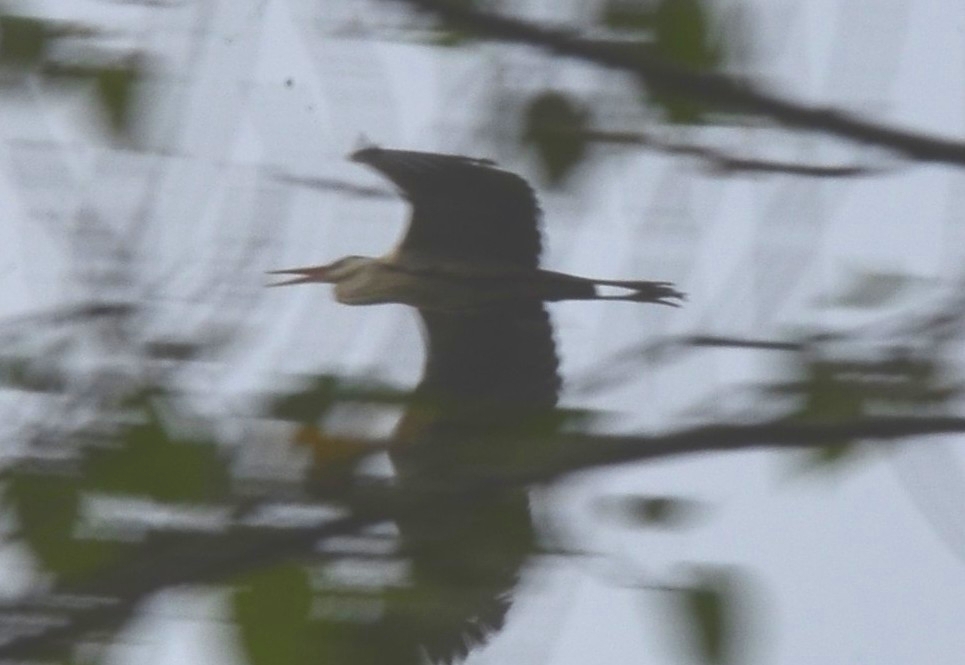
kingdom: Animalia
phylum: Chordata
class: Aves
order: Pelecaniformes
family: Ardeidae
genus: Ardea
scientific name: Ardea cinerea
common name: Grey heron
